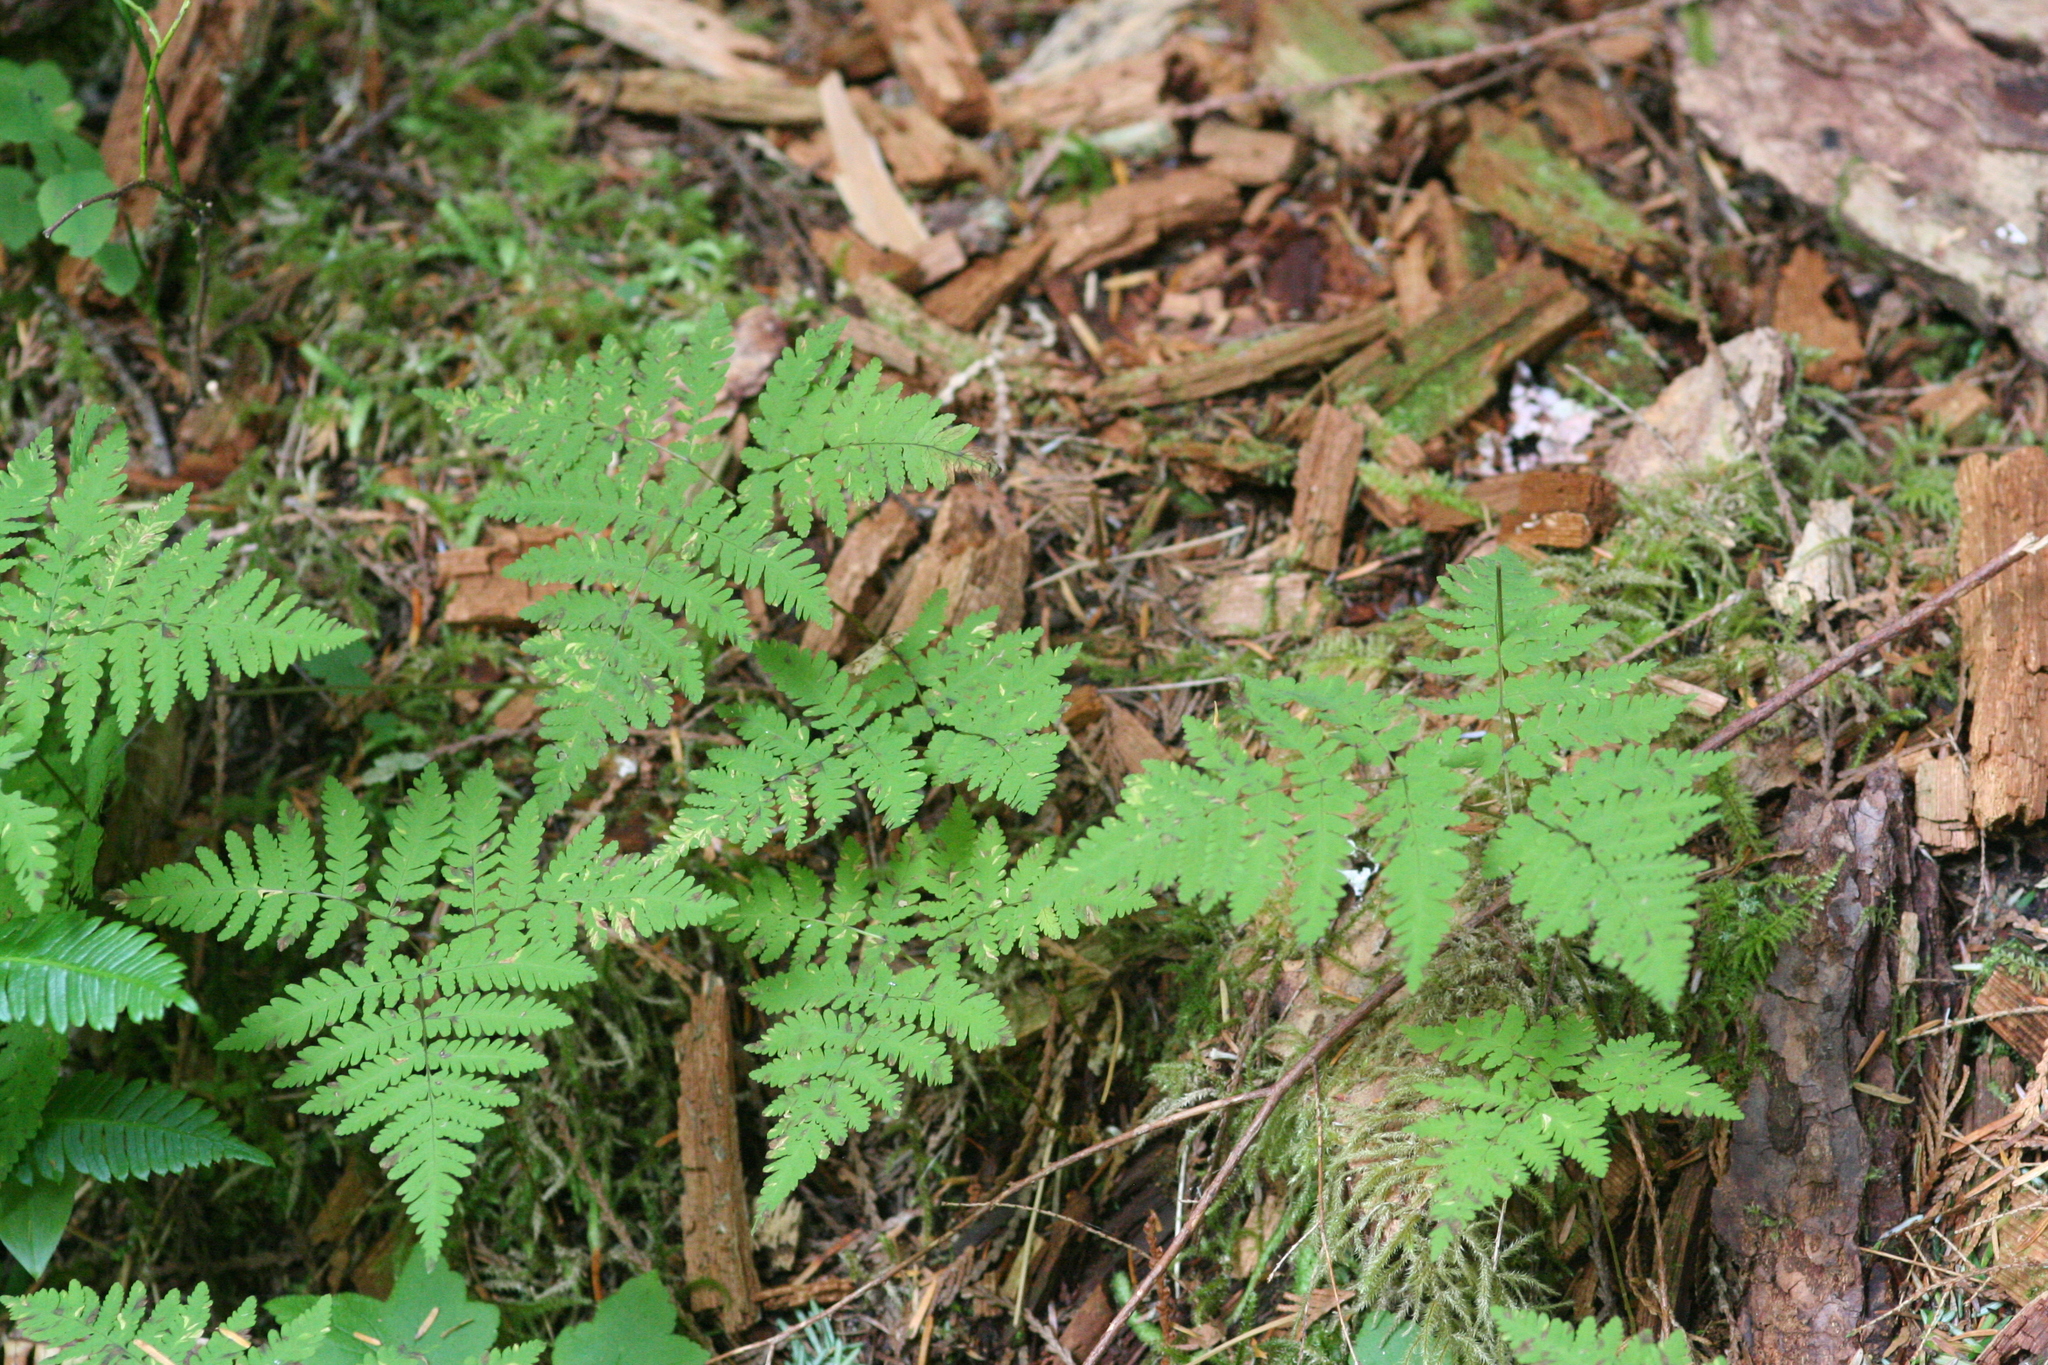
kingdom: Plantae
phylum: Tracheophyta
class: Polypodiopsida
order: Polypodiales
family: Cystopteridaceae
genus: Gymnocarpium
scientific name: Gymnocarpium disjunctum
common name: Western oak fern
